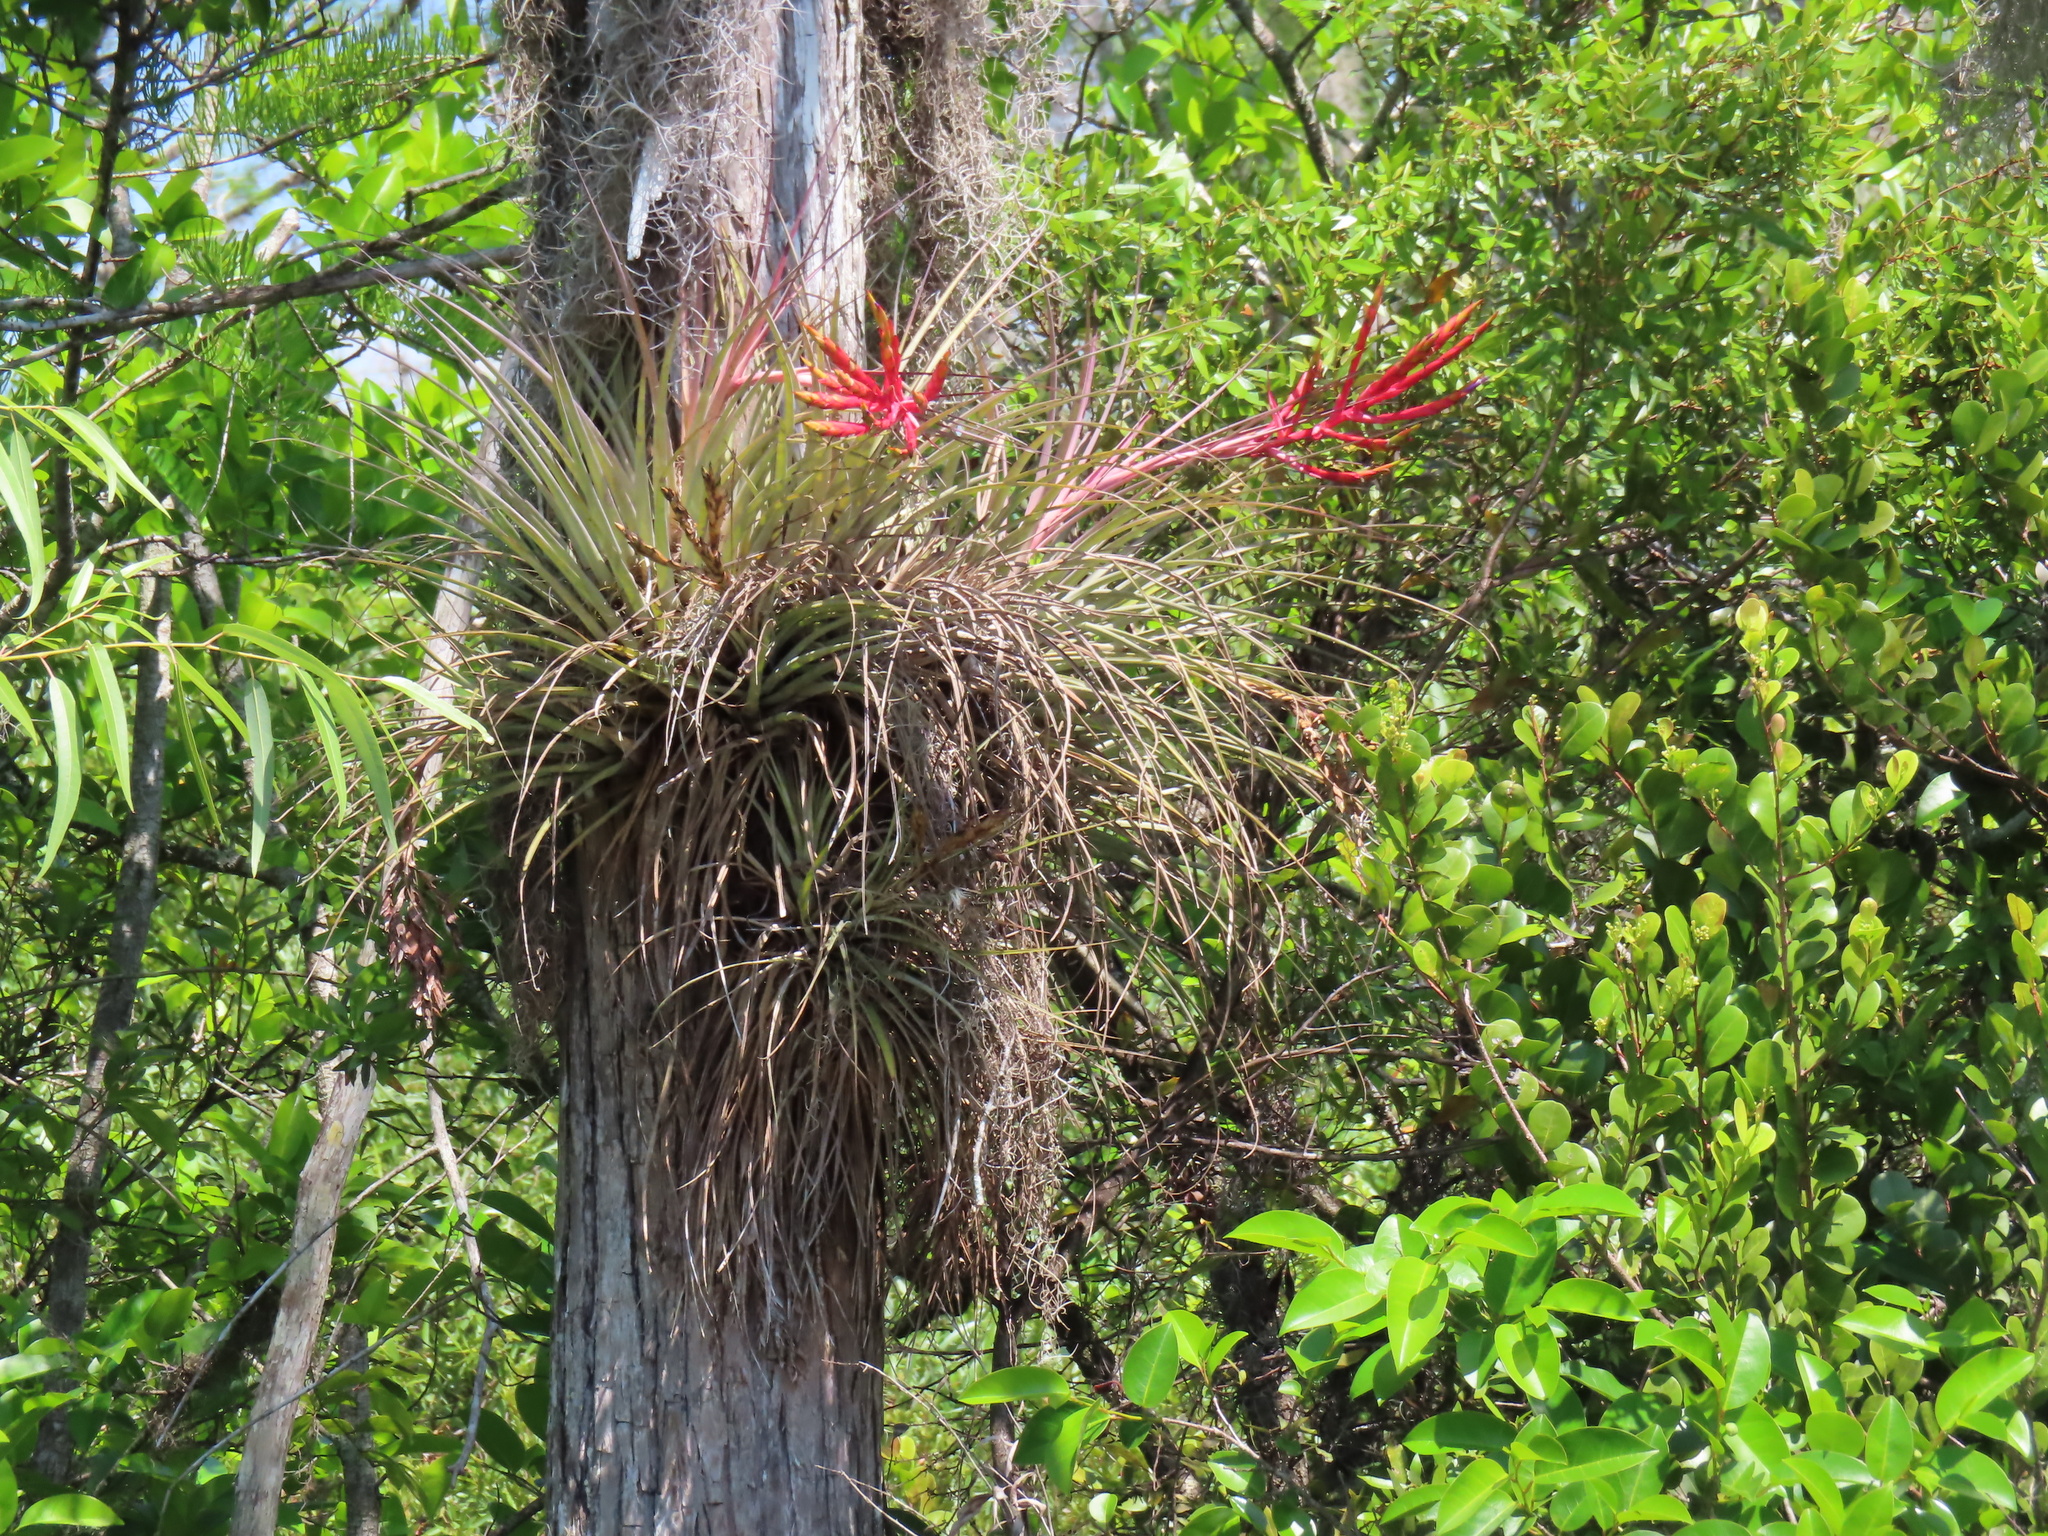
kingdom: Plantae
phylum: Tracheophyta
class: Liliopsida
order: Poales
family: Bromeliaceae
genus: Tillandsia
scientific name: Tillandsia fasciculata
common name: Giant airplant
